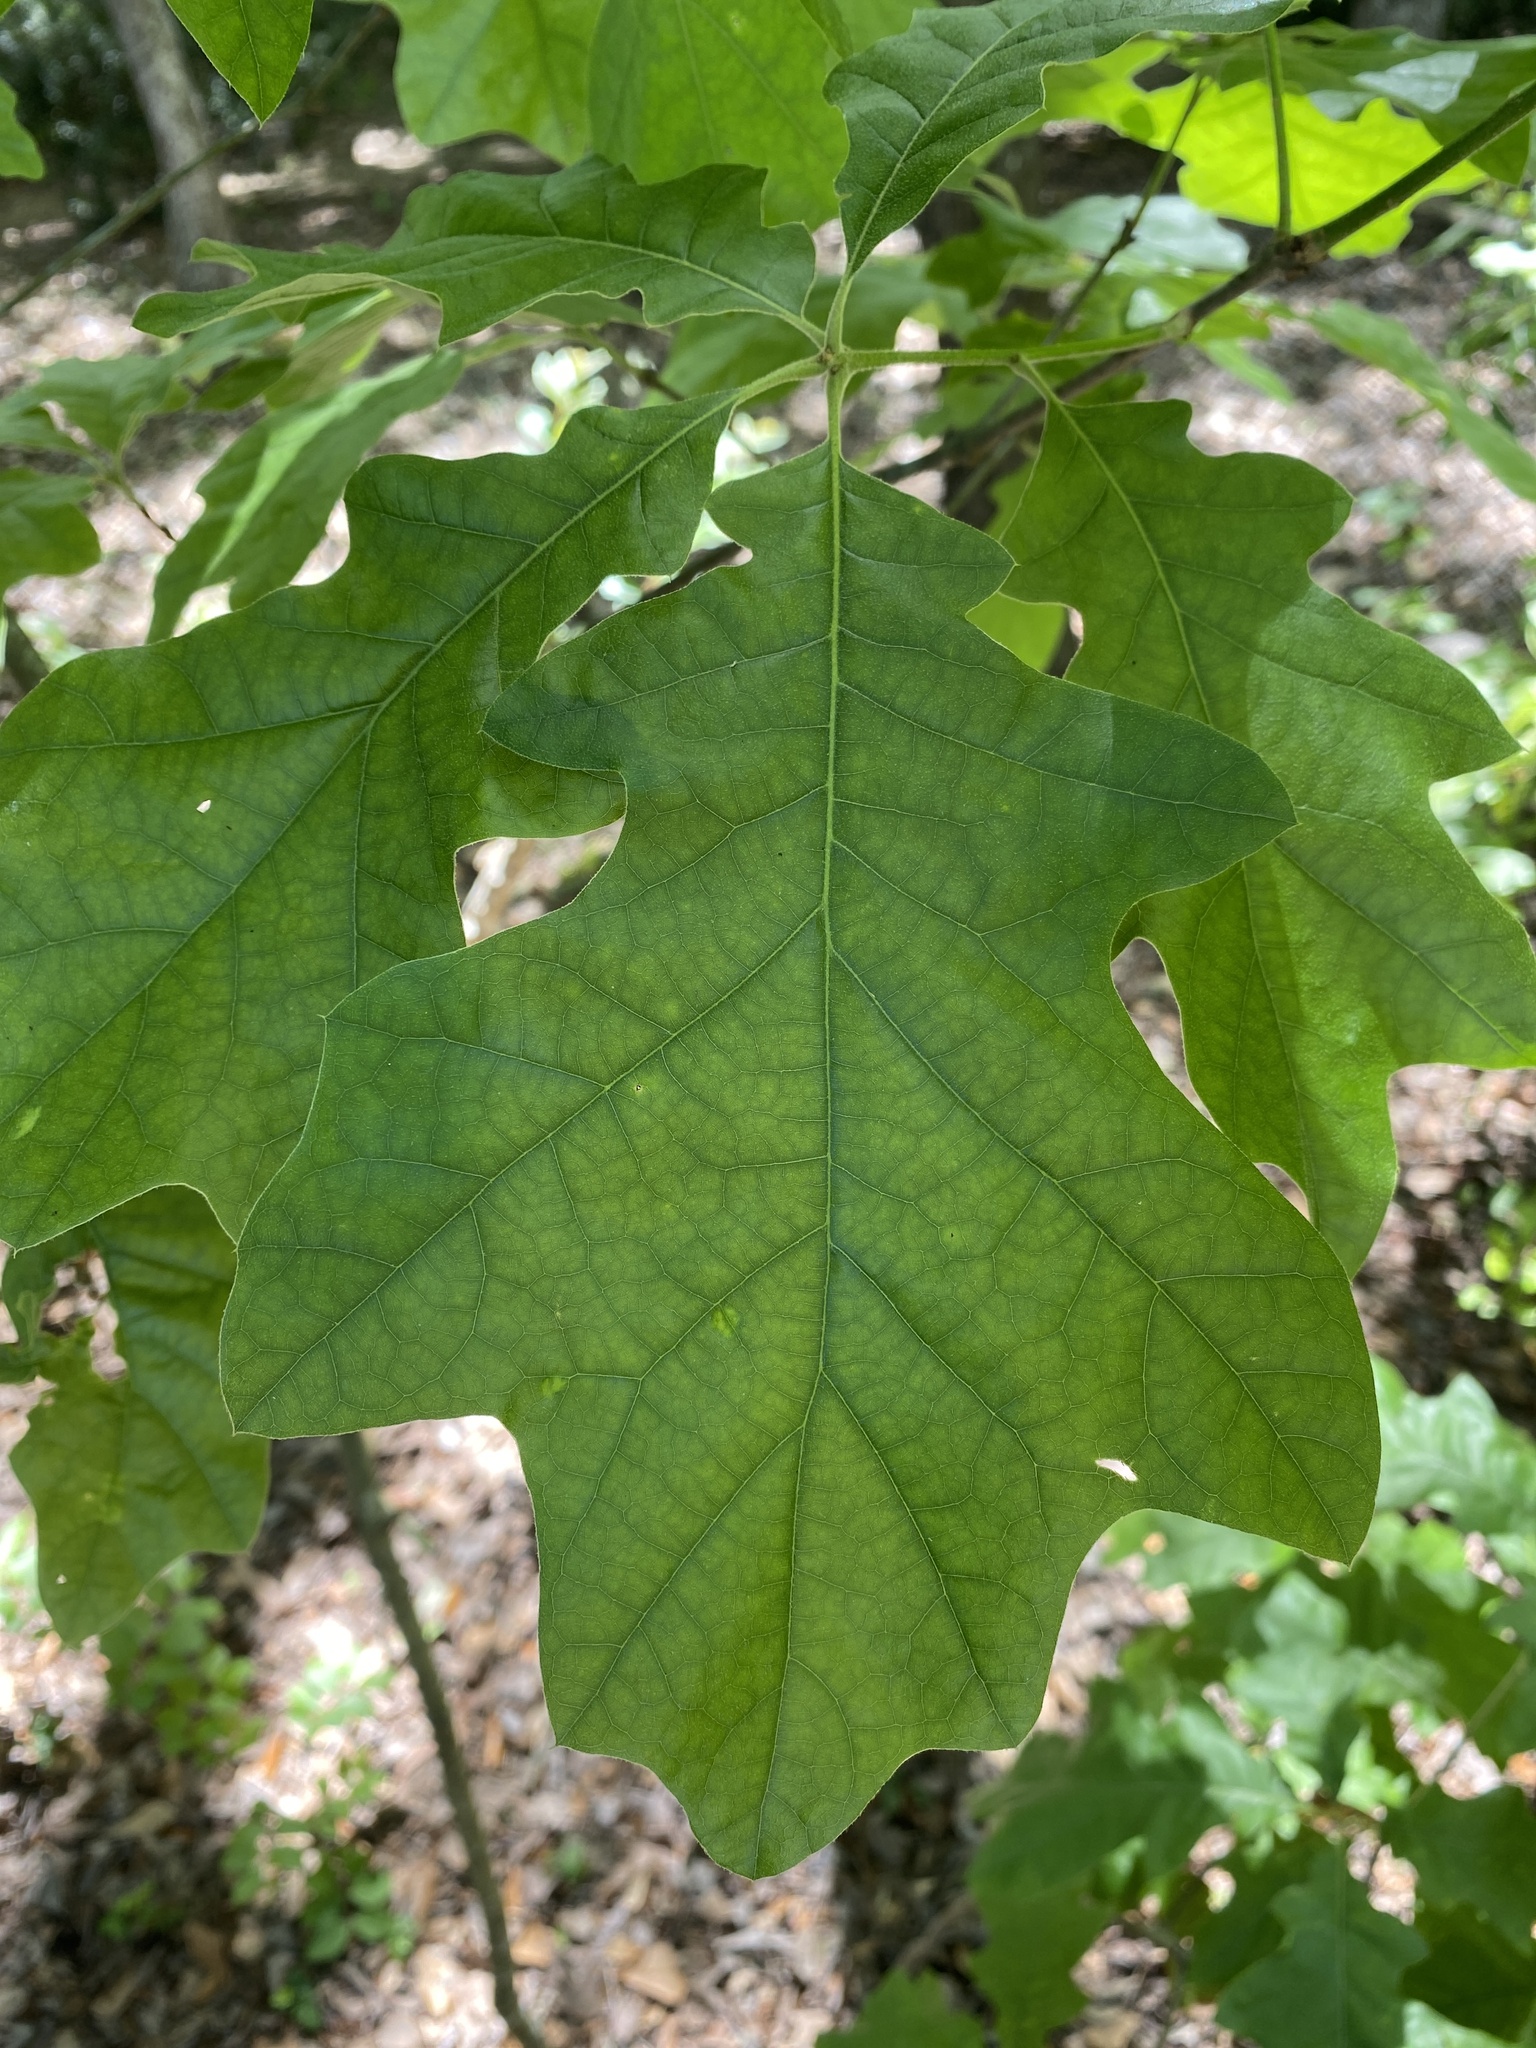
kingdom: Plantae
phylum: Tracheophyta
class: Magnoliopsida
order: Fagales
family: Fagaceae
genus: Quercus
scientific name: Quercus velutina
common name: Black oak
